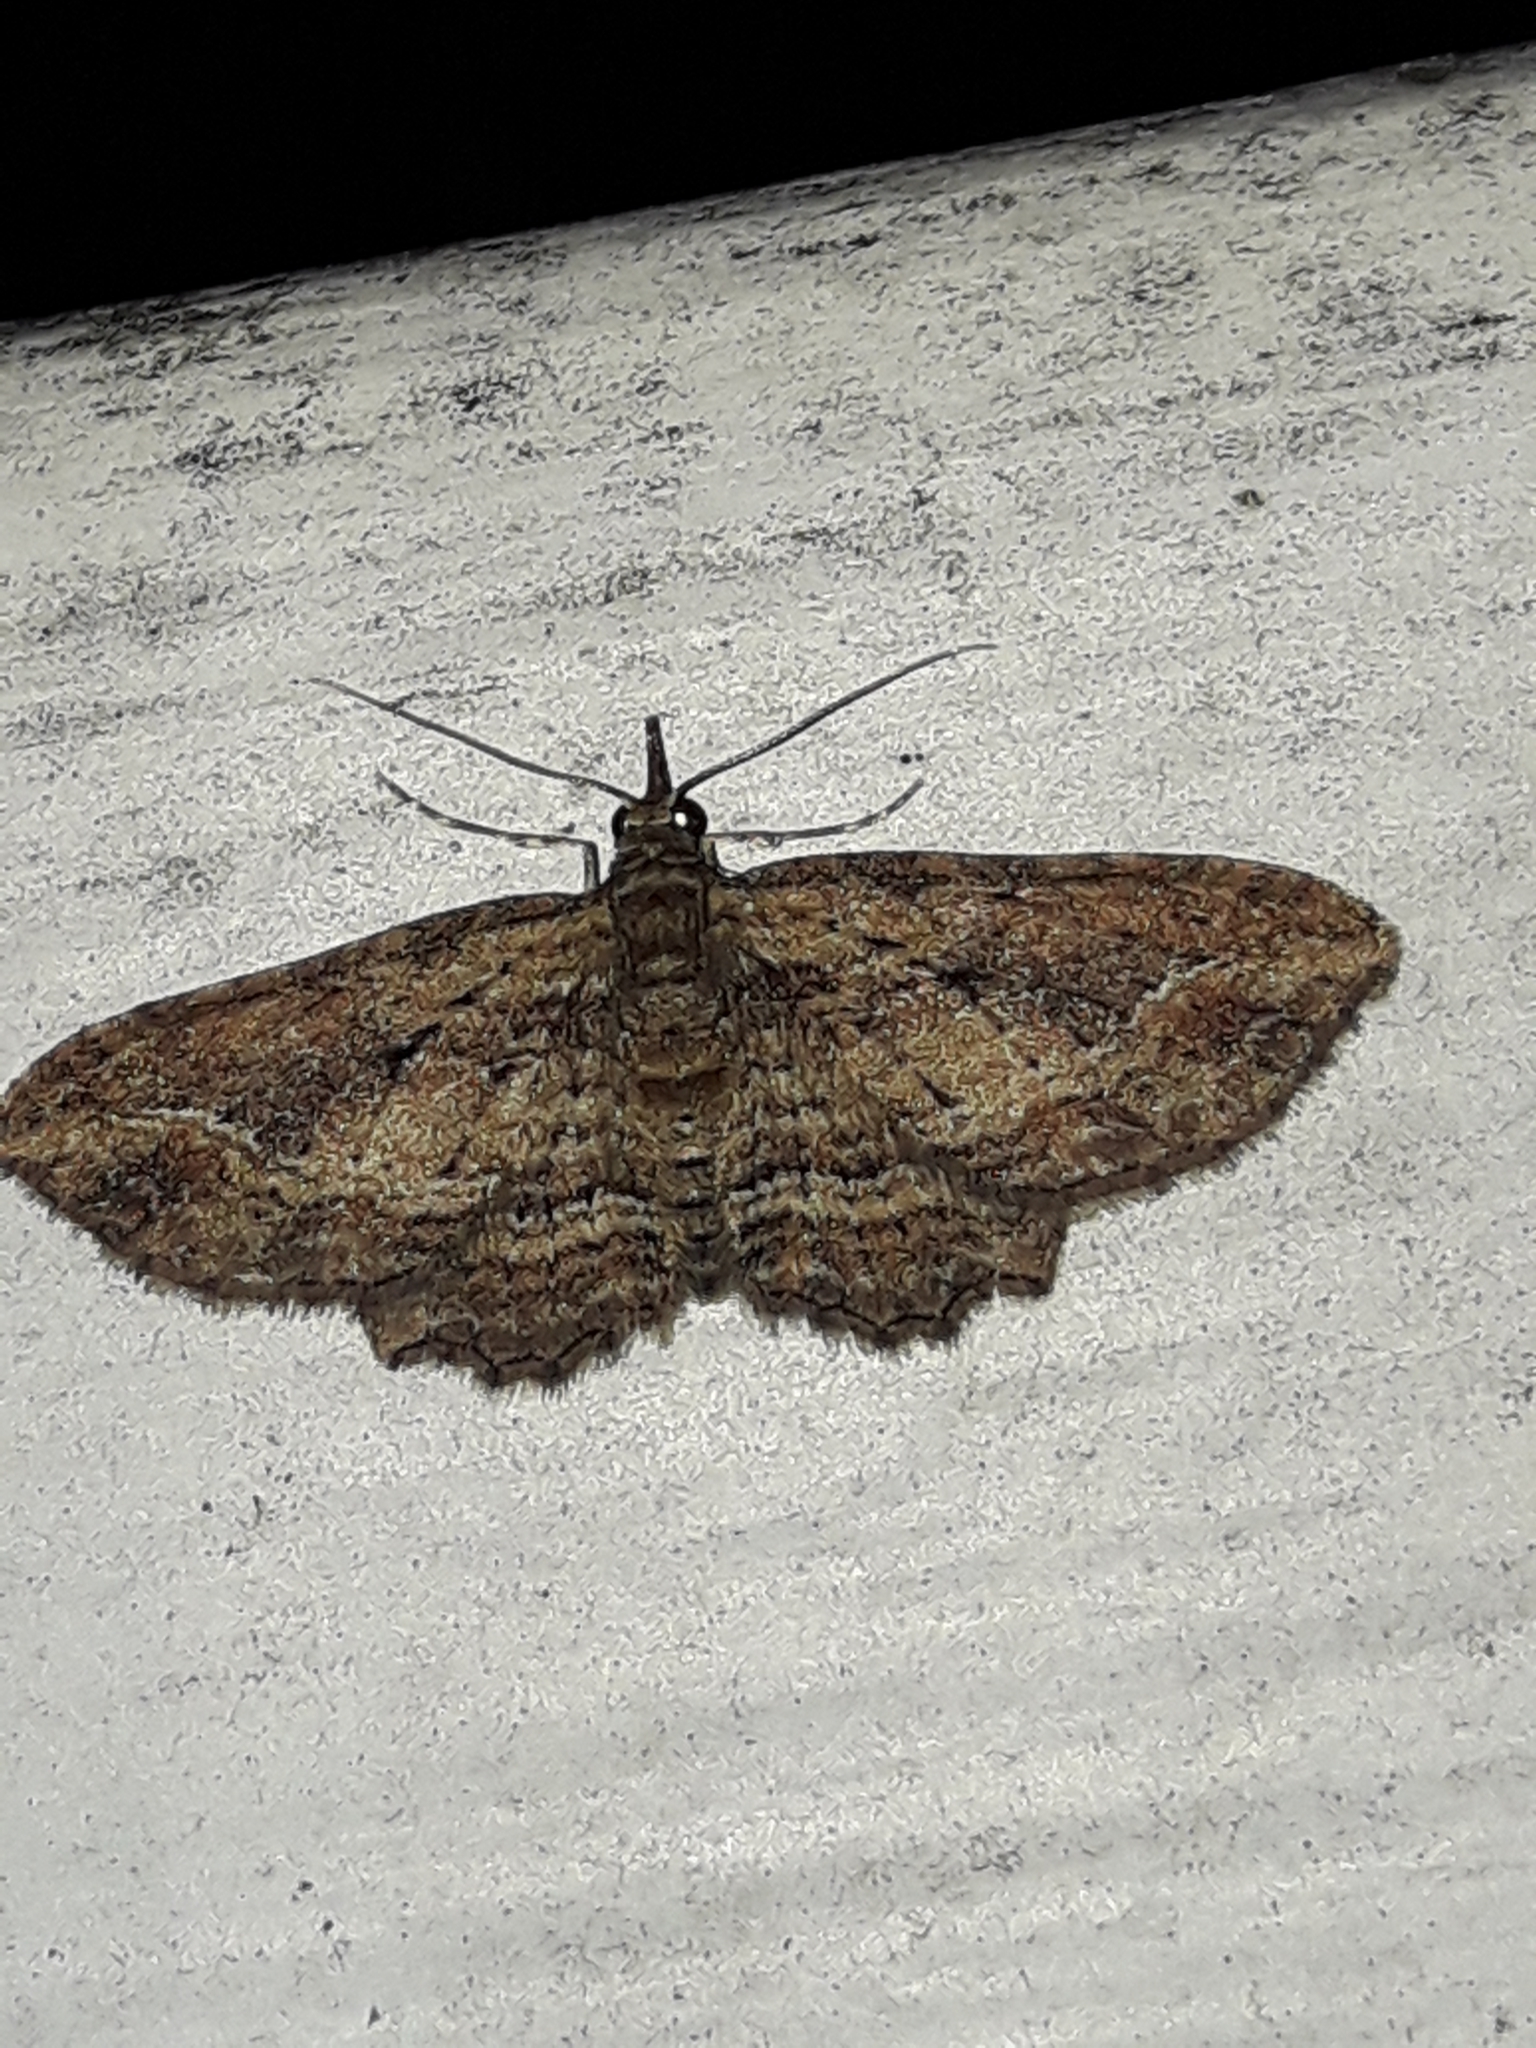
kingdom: Animalia
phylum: Arthropoda
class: Insecta
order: Lepidoptera
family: Geometridae
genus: Chloroclystis
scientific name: Chloroclystis filata
